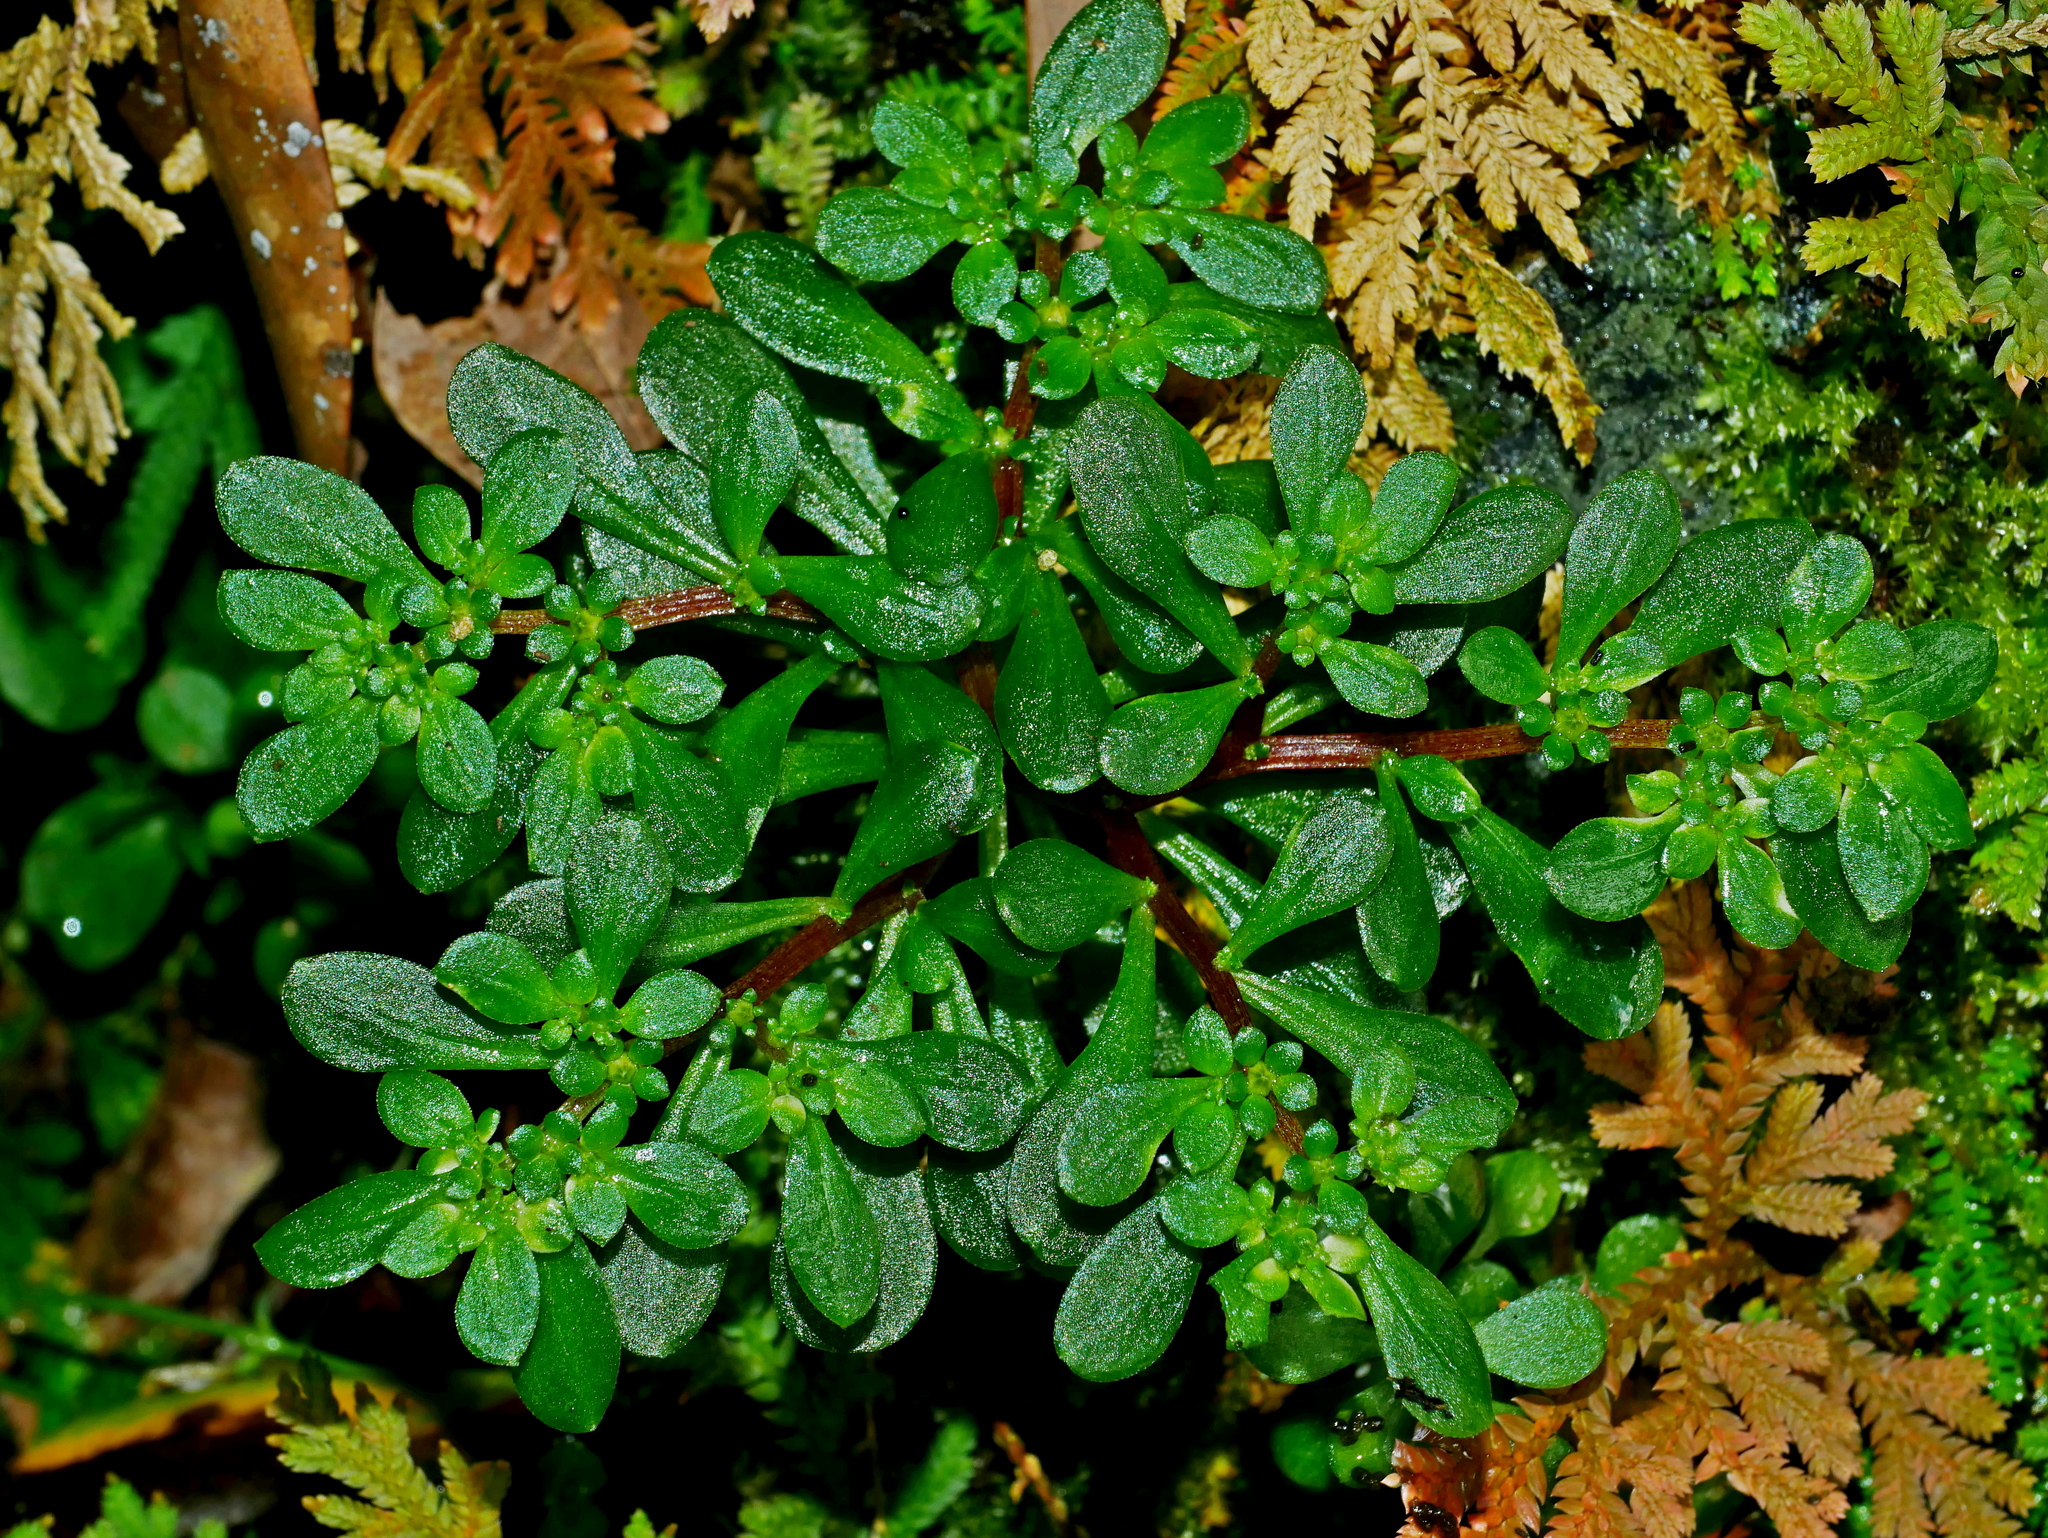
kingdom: Plantae
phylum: Tracheophyta
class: Magnoliopsida
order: Saxifragales
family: Crassulaceae
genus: Sedum
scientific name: Sedum actinocarpum
